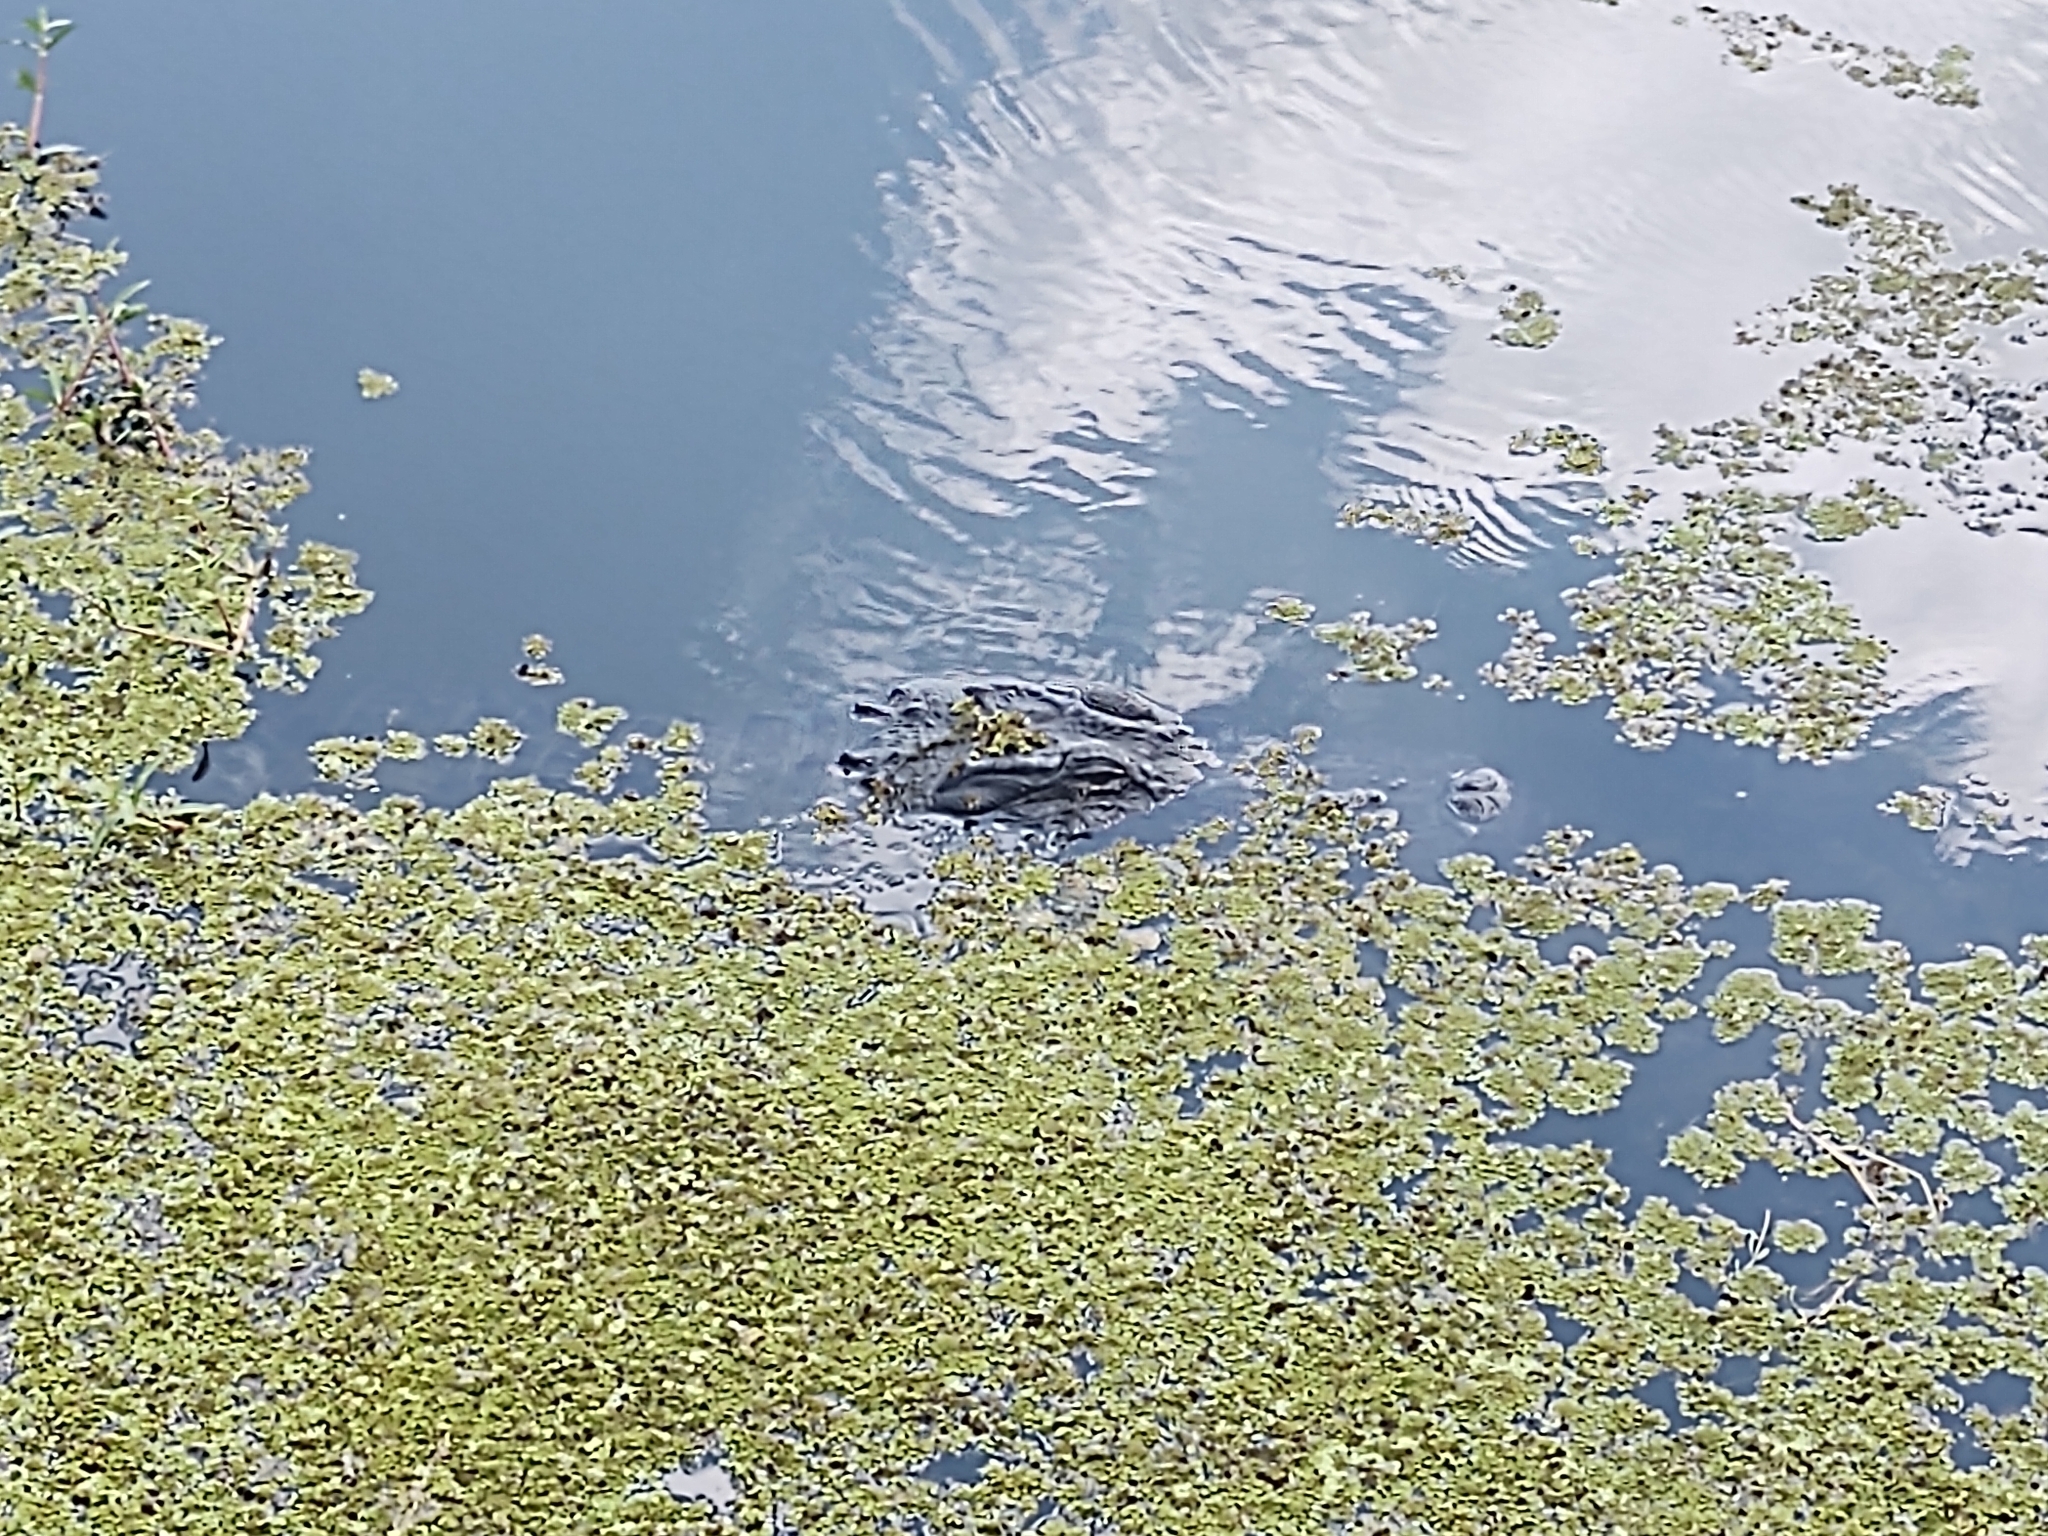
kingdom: Animalia
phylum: Chordata
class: Crocodylia
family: Alligatoridae
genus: Alligator
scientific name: Alligator mississippiensis
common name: American alligator
